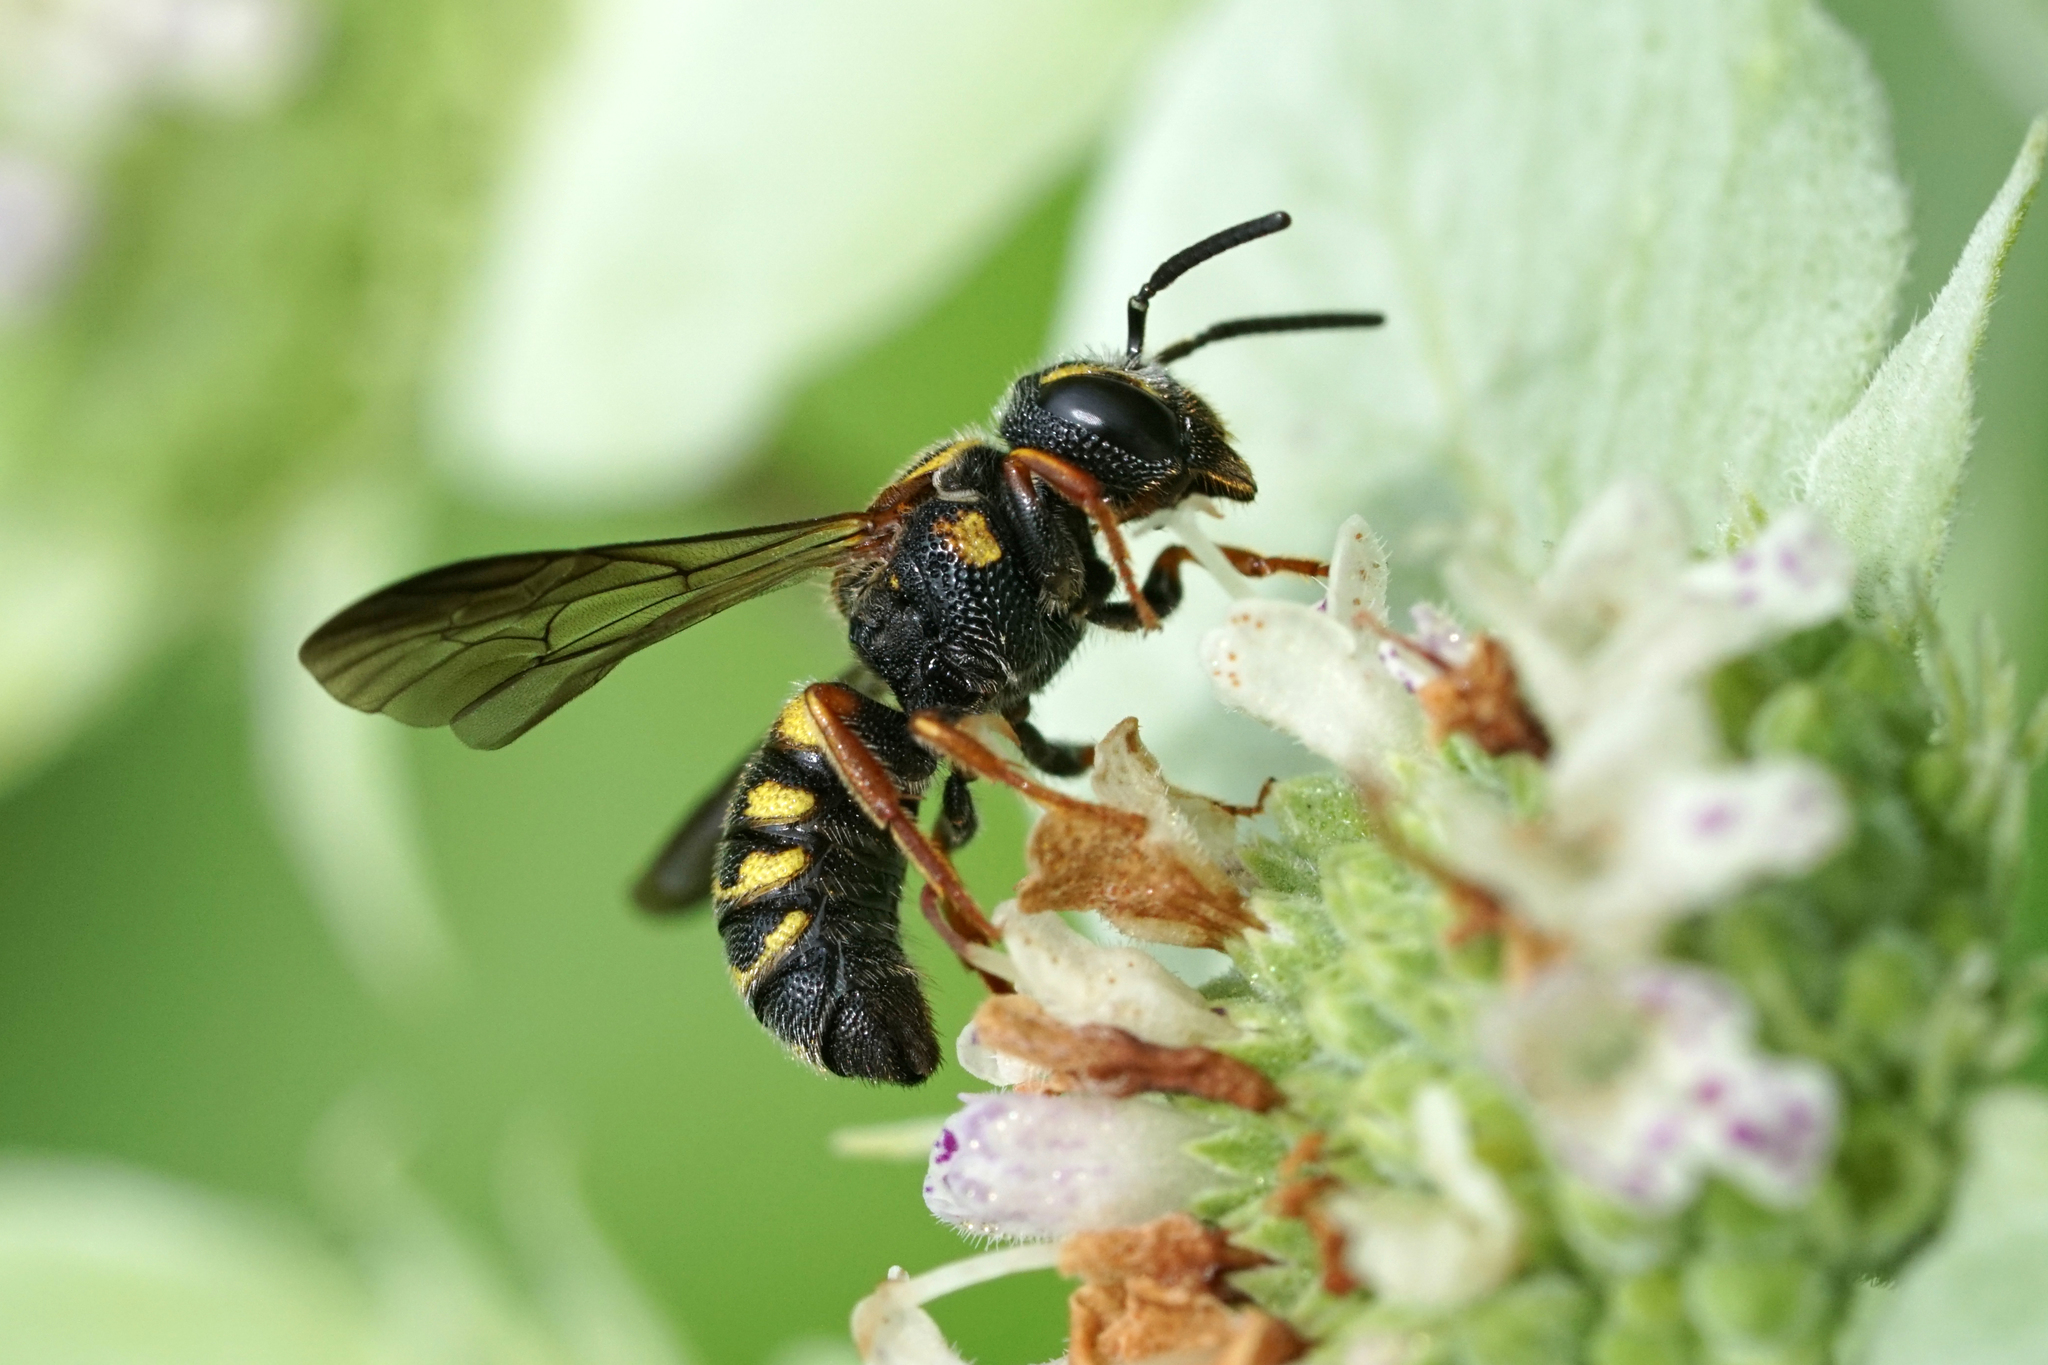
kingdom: Animalia
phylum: Arthropoda
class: Insecta
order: Hymenoptera
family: Megachilidae
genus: Stelis
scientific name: Stelis louisae
